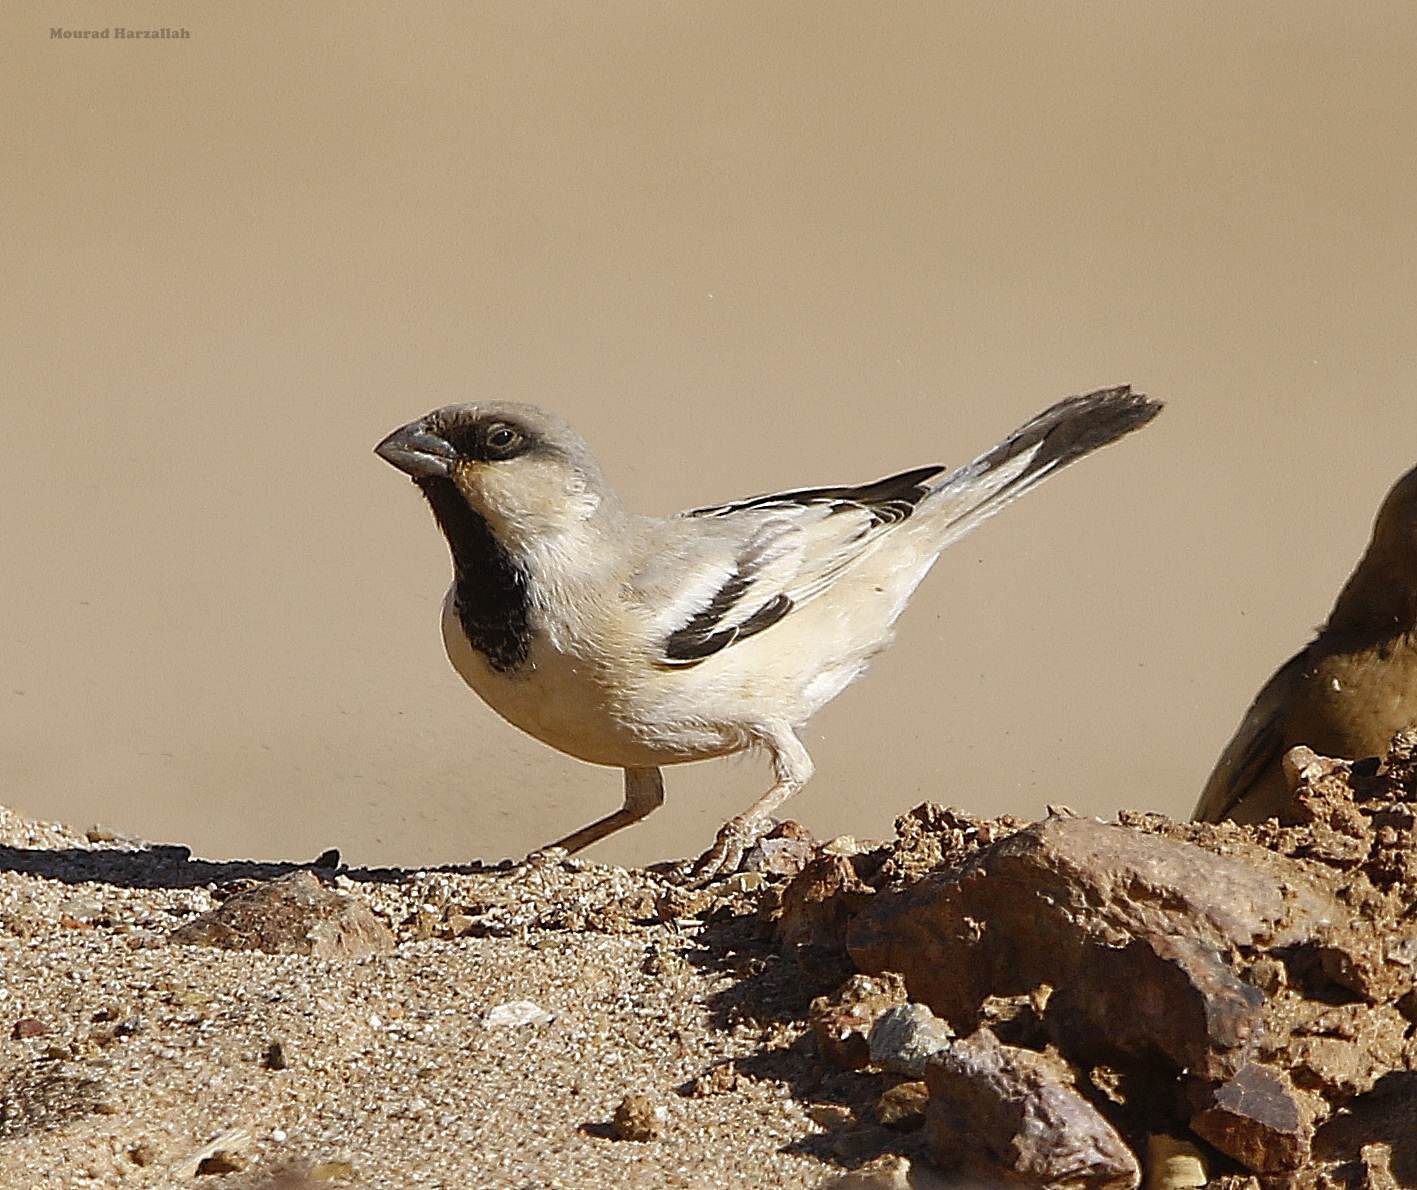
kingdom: Animalia
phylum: Chordata
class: Aves
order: Passeriformes
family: Passeridae
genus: Passer
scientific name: Passer simplex
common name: Desert sparrow
